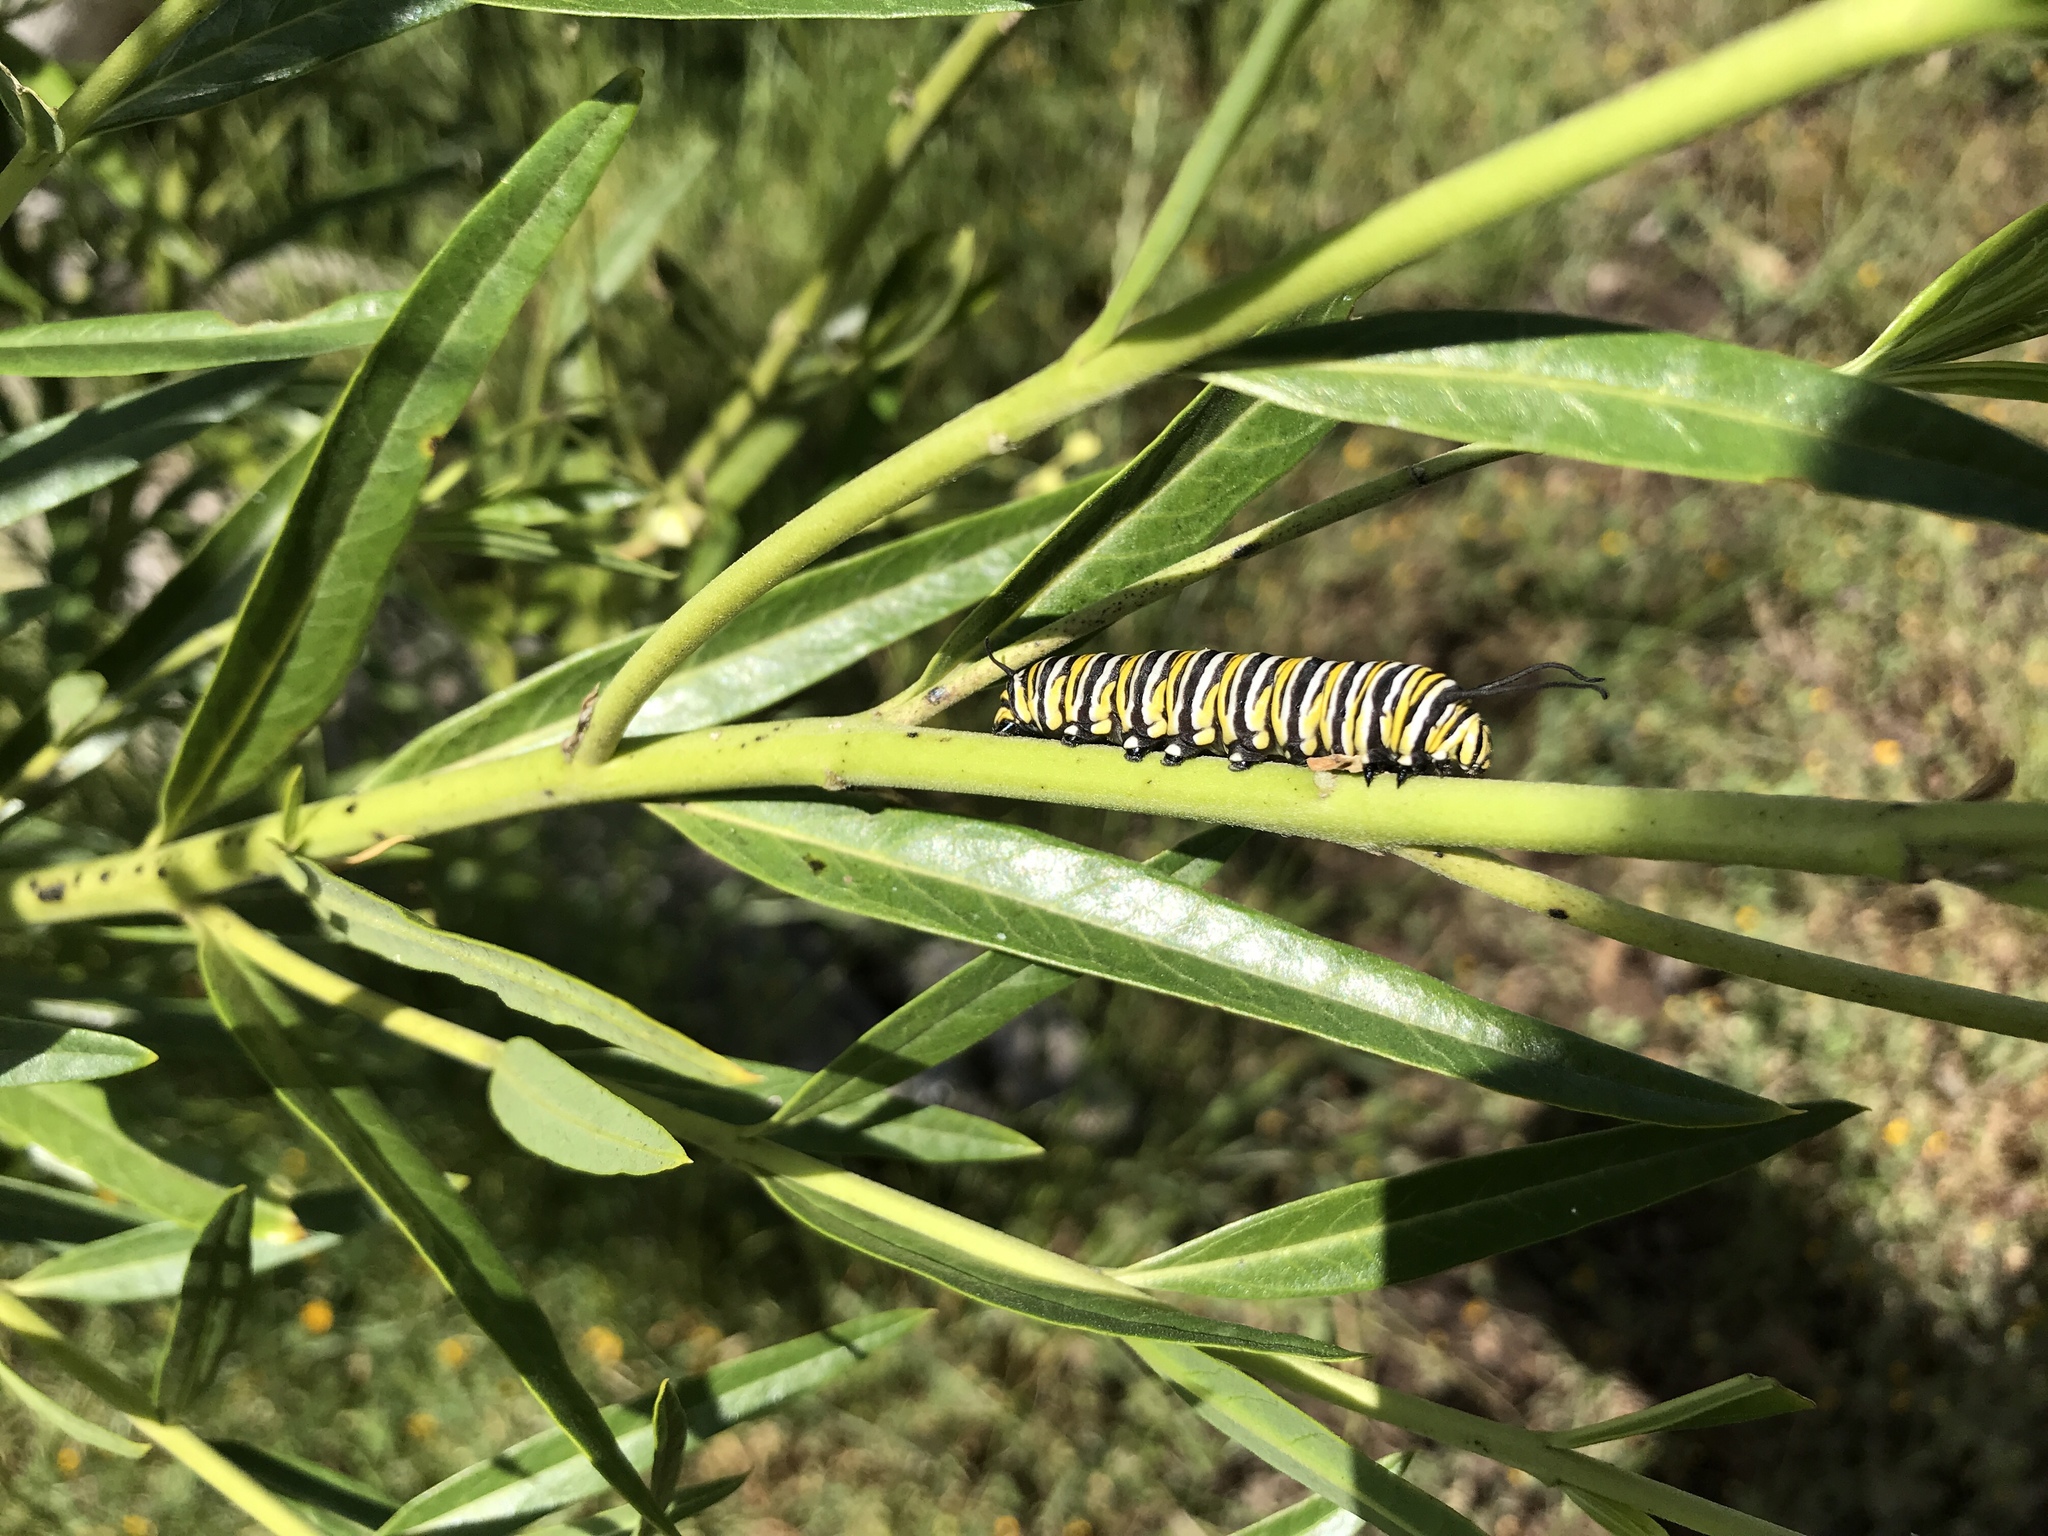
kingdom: Animalia
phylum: Arthropoda
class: Insecta
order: Lepidoptera
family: Nymphalidae
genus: Danaus
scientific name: Danaus plexippus
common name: Monarch
